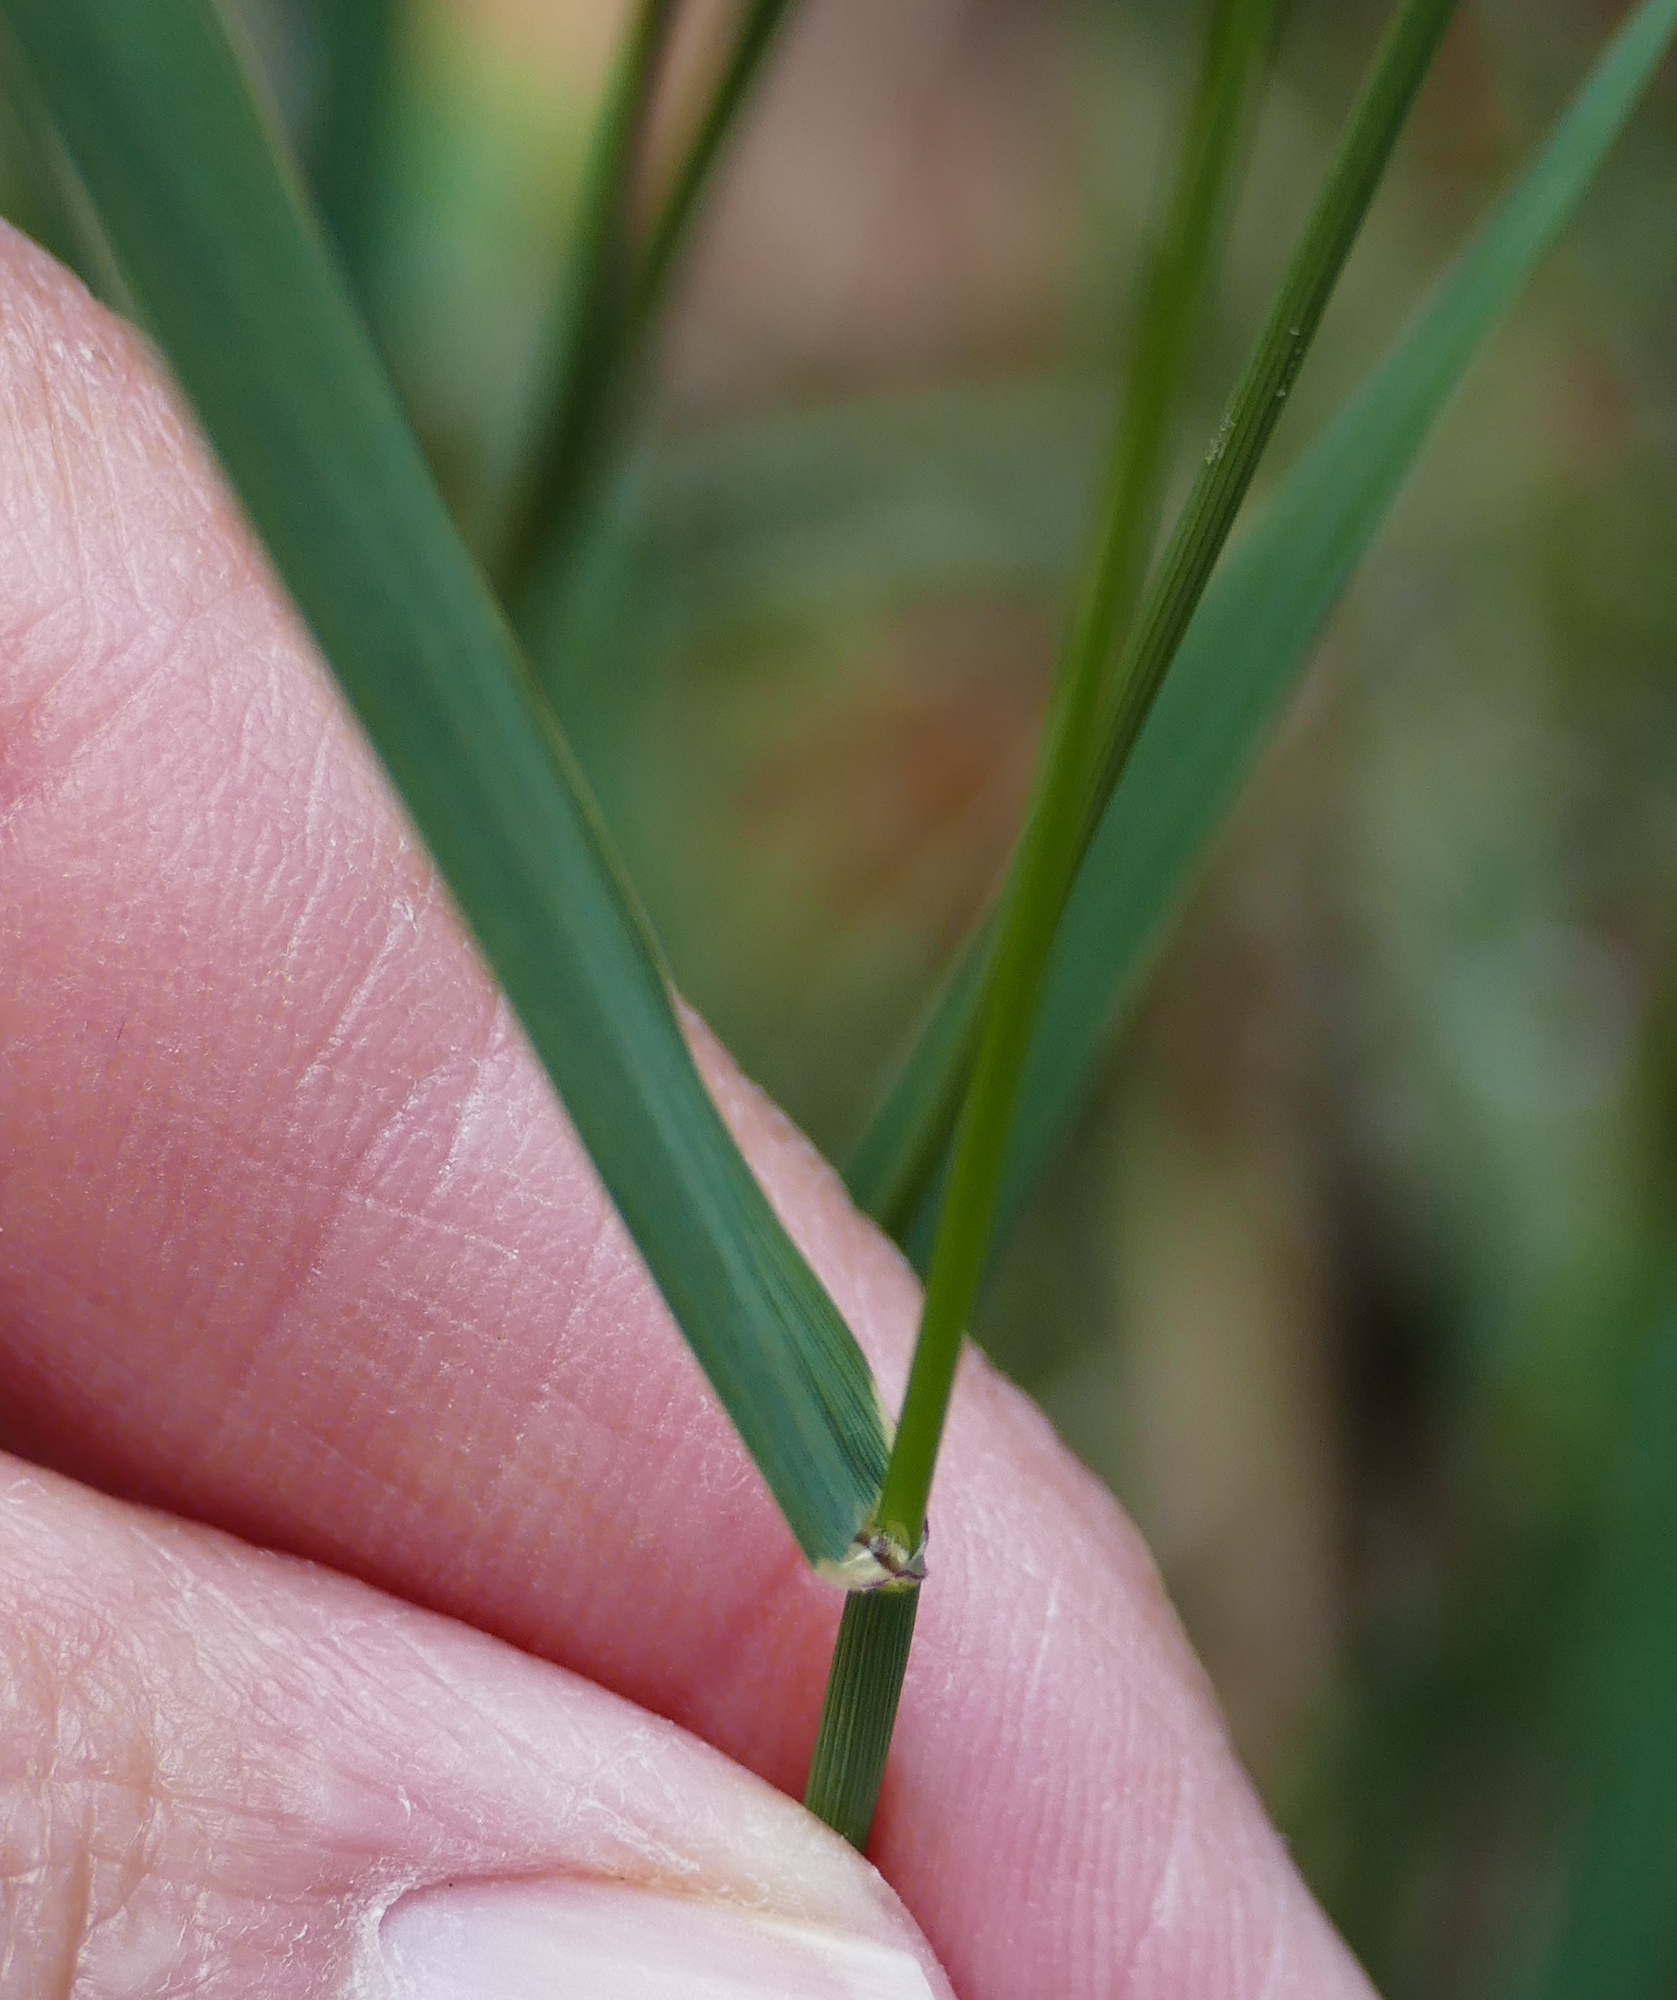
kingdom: Plantae
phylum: Tracheophyta
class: Liliopsida
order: Poales
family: Poaceae
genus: Bouteloua
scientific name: Bouteloua curtipendula
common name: Side-oats grama
